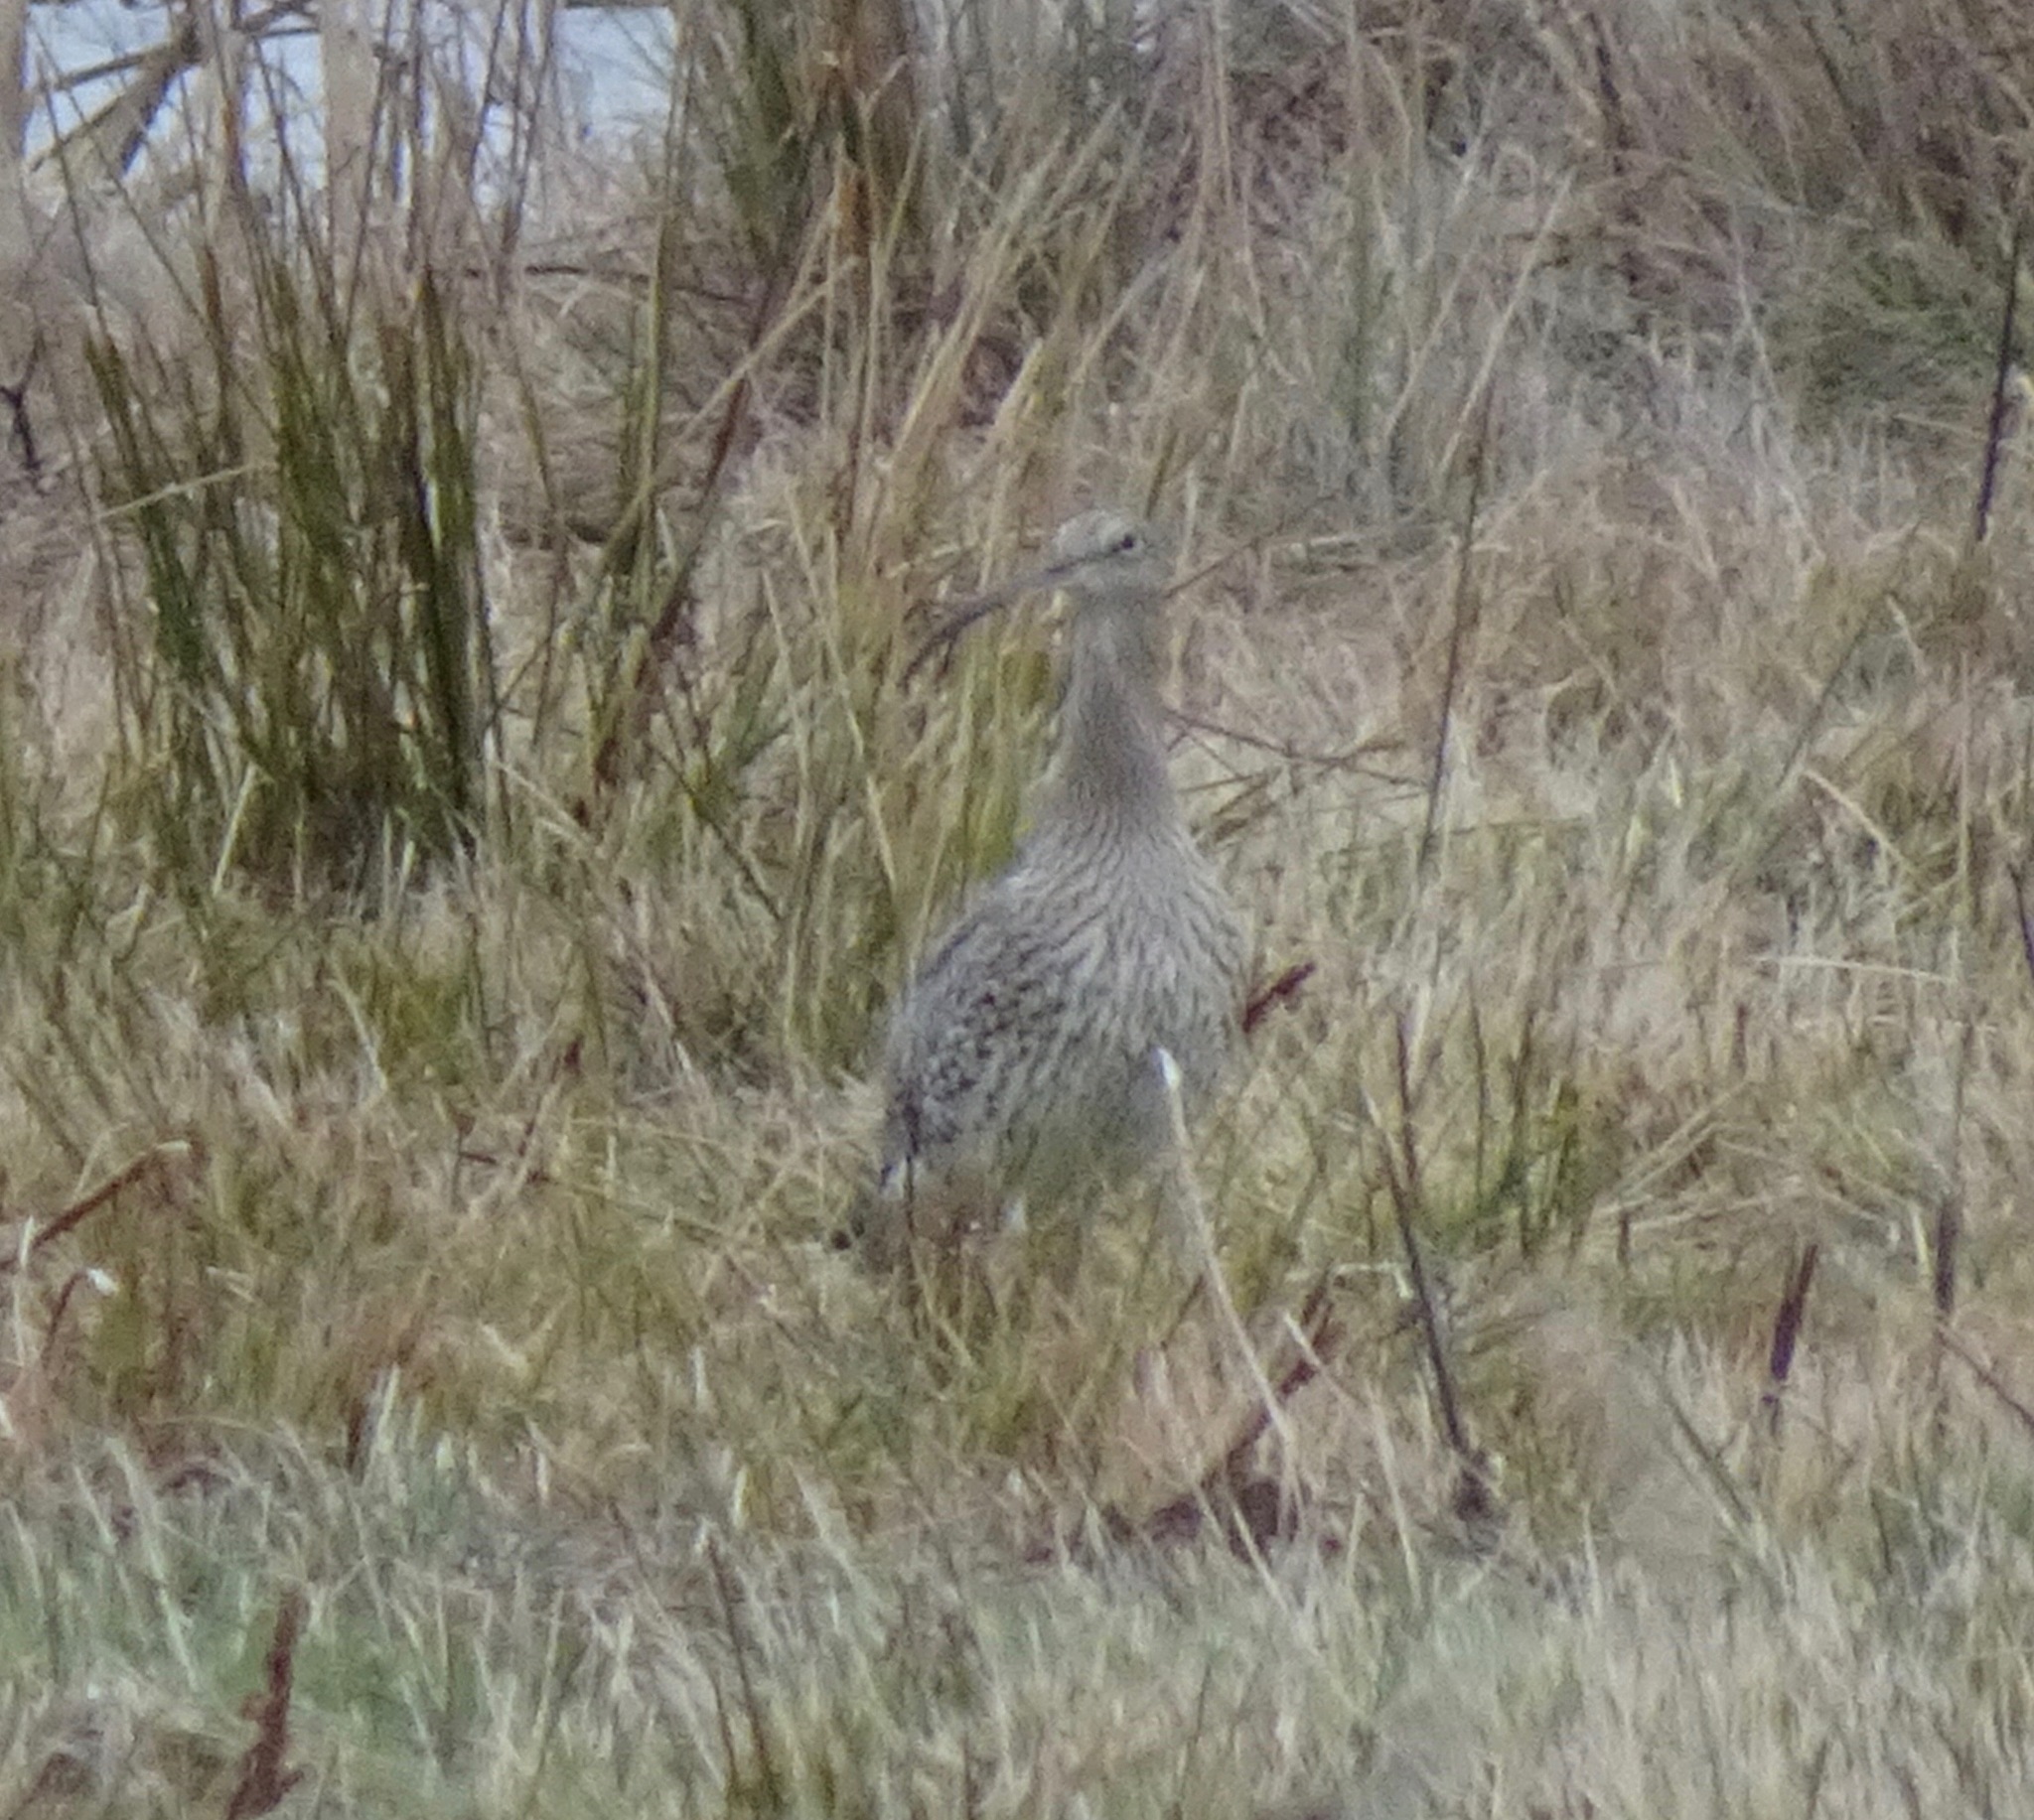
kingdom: Animalia
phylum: Chordata
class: Aves
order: Charadriiformes
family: Scolopacidae
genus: Numenius
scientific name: Numenius arquata
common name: Eurasian curlew
